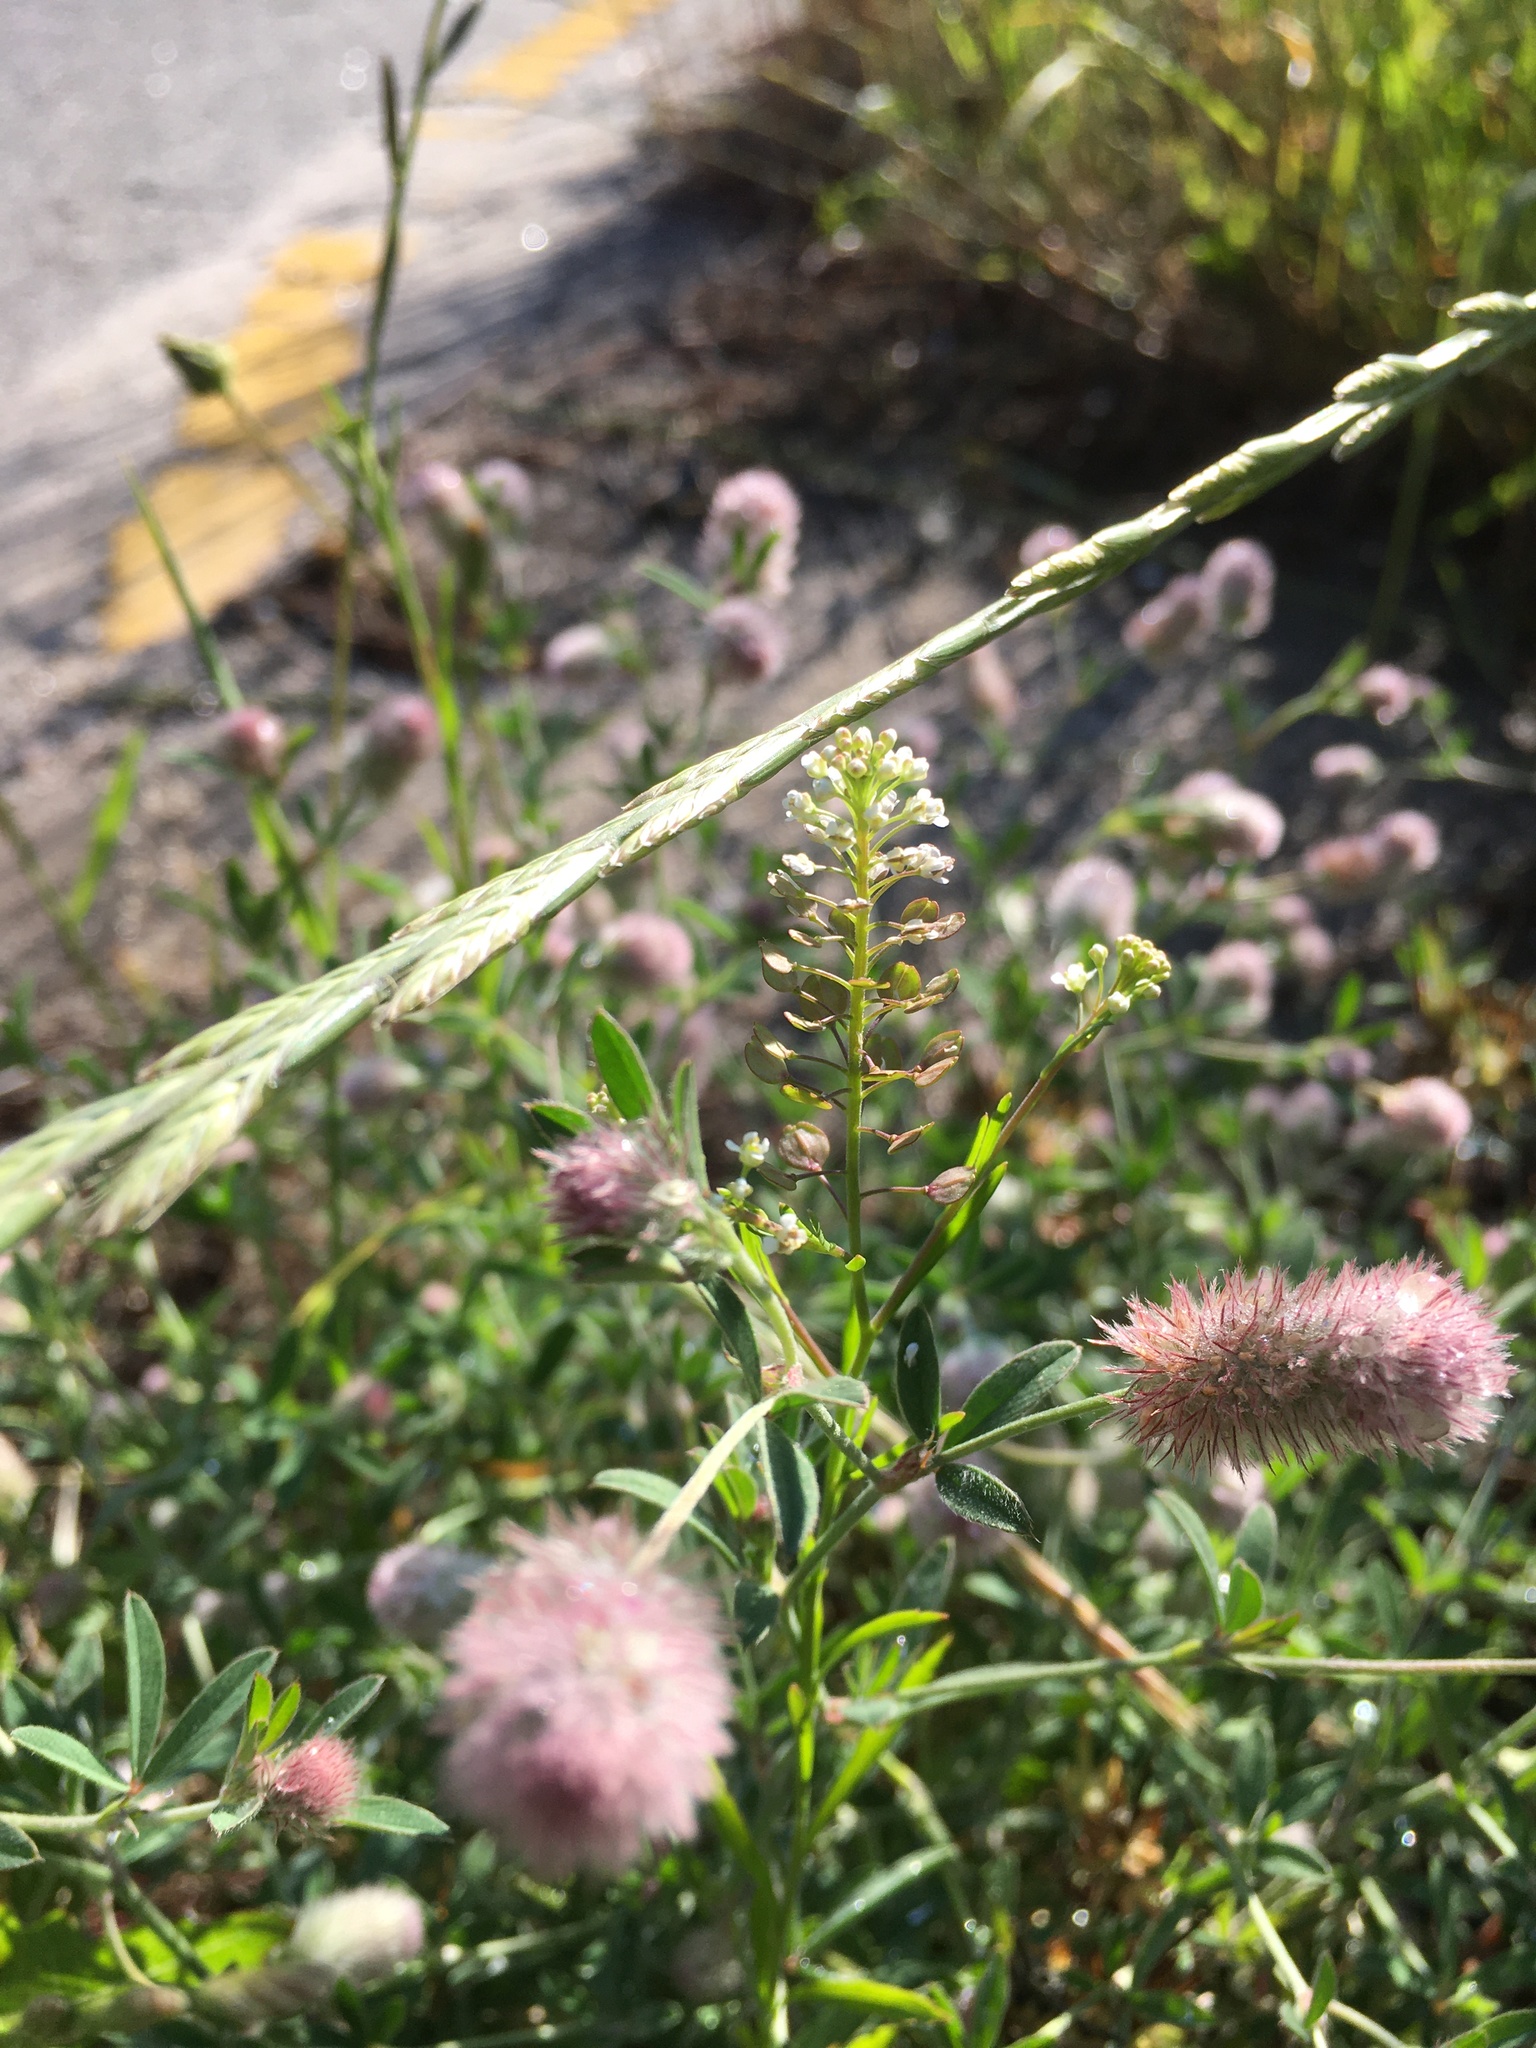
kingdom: Plantae
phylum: Tracheophyta
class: Magnoliopsida
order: Fabales
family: Fabaceae
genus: Trifolium
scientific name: Trifolium arvense
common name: Hare's-foot clover
